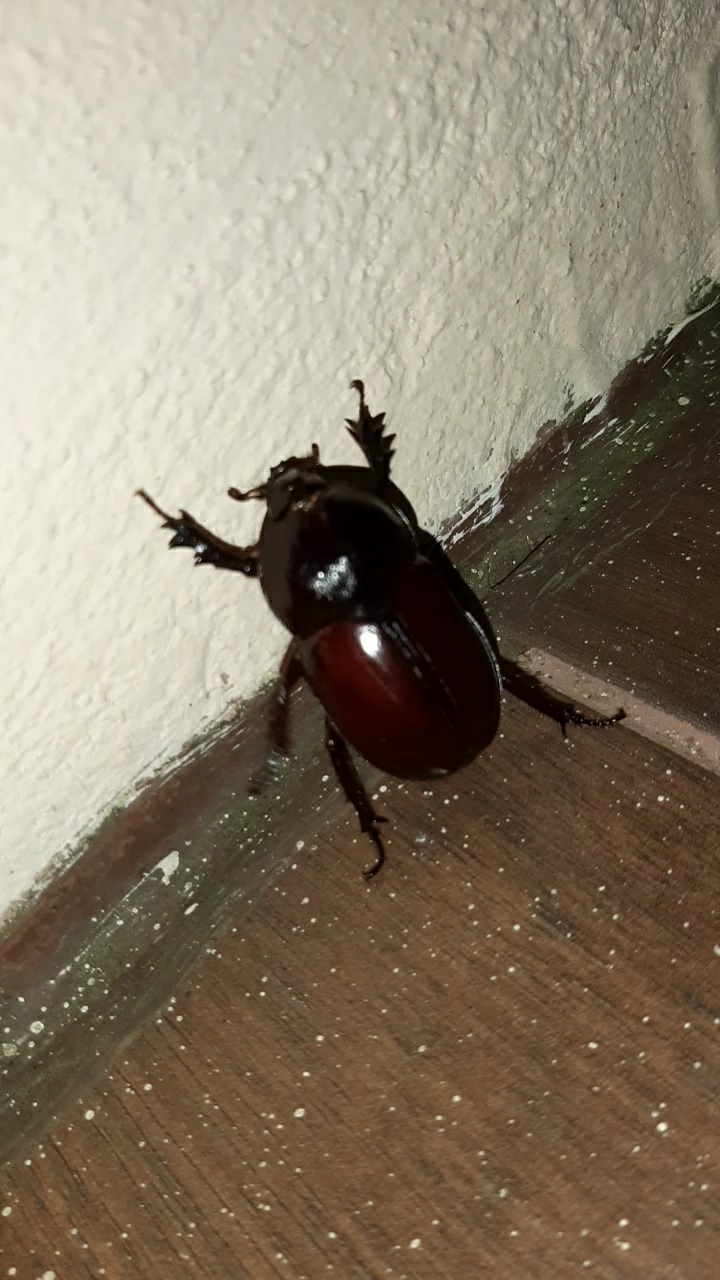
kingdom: Animalia
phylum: Arthropoda
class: Insecta
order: Coleoptera
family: Scarabaeidae
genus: Enema
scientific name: Enema endymion
